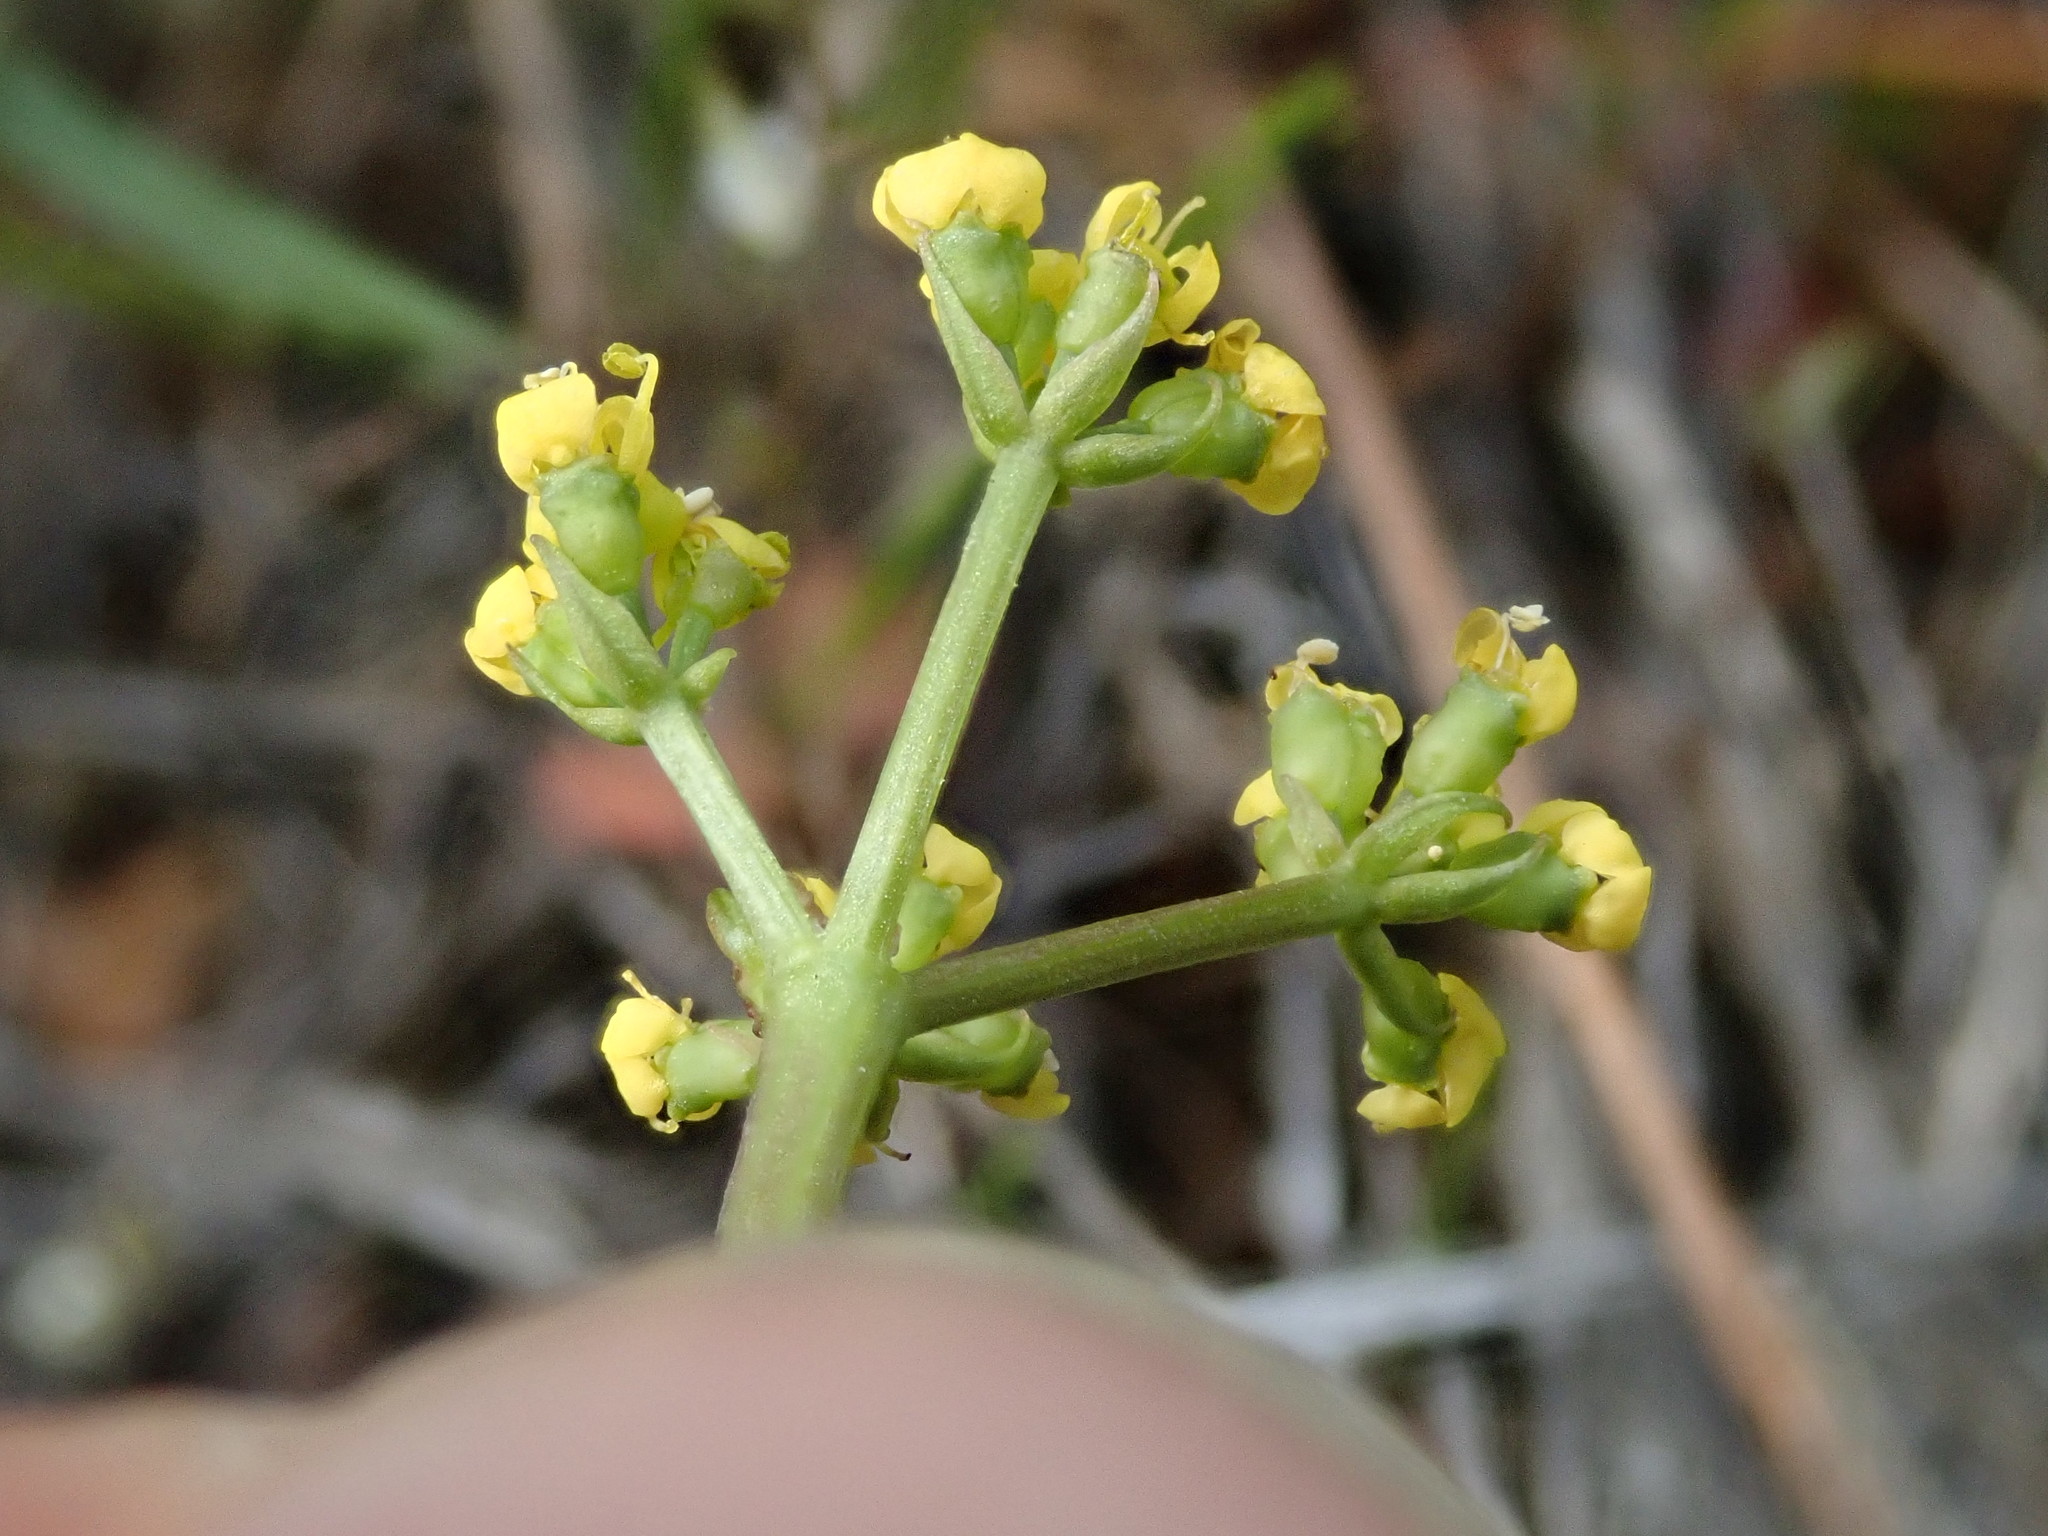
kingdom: Plantae
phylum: Tracheophyta
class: Magnoliopsida
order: Apiales
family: Apiaceae
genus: Lomatium
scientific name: Lomatium hendersonii
